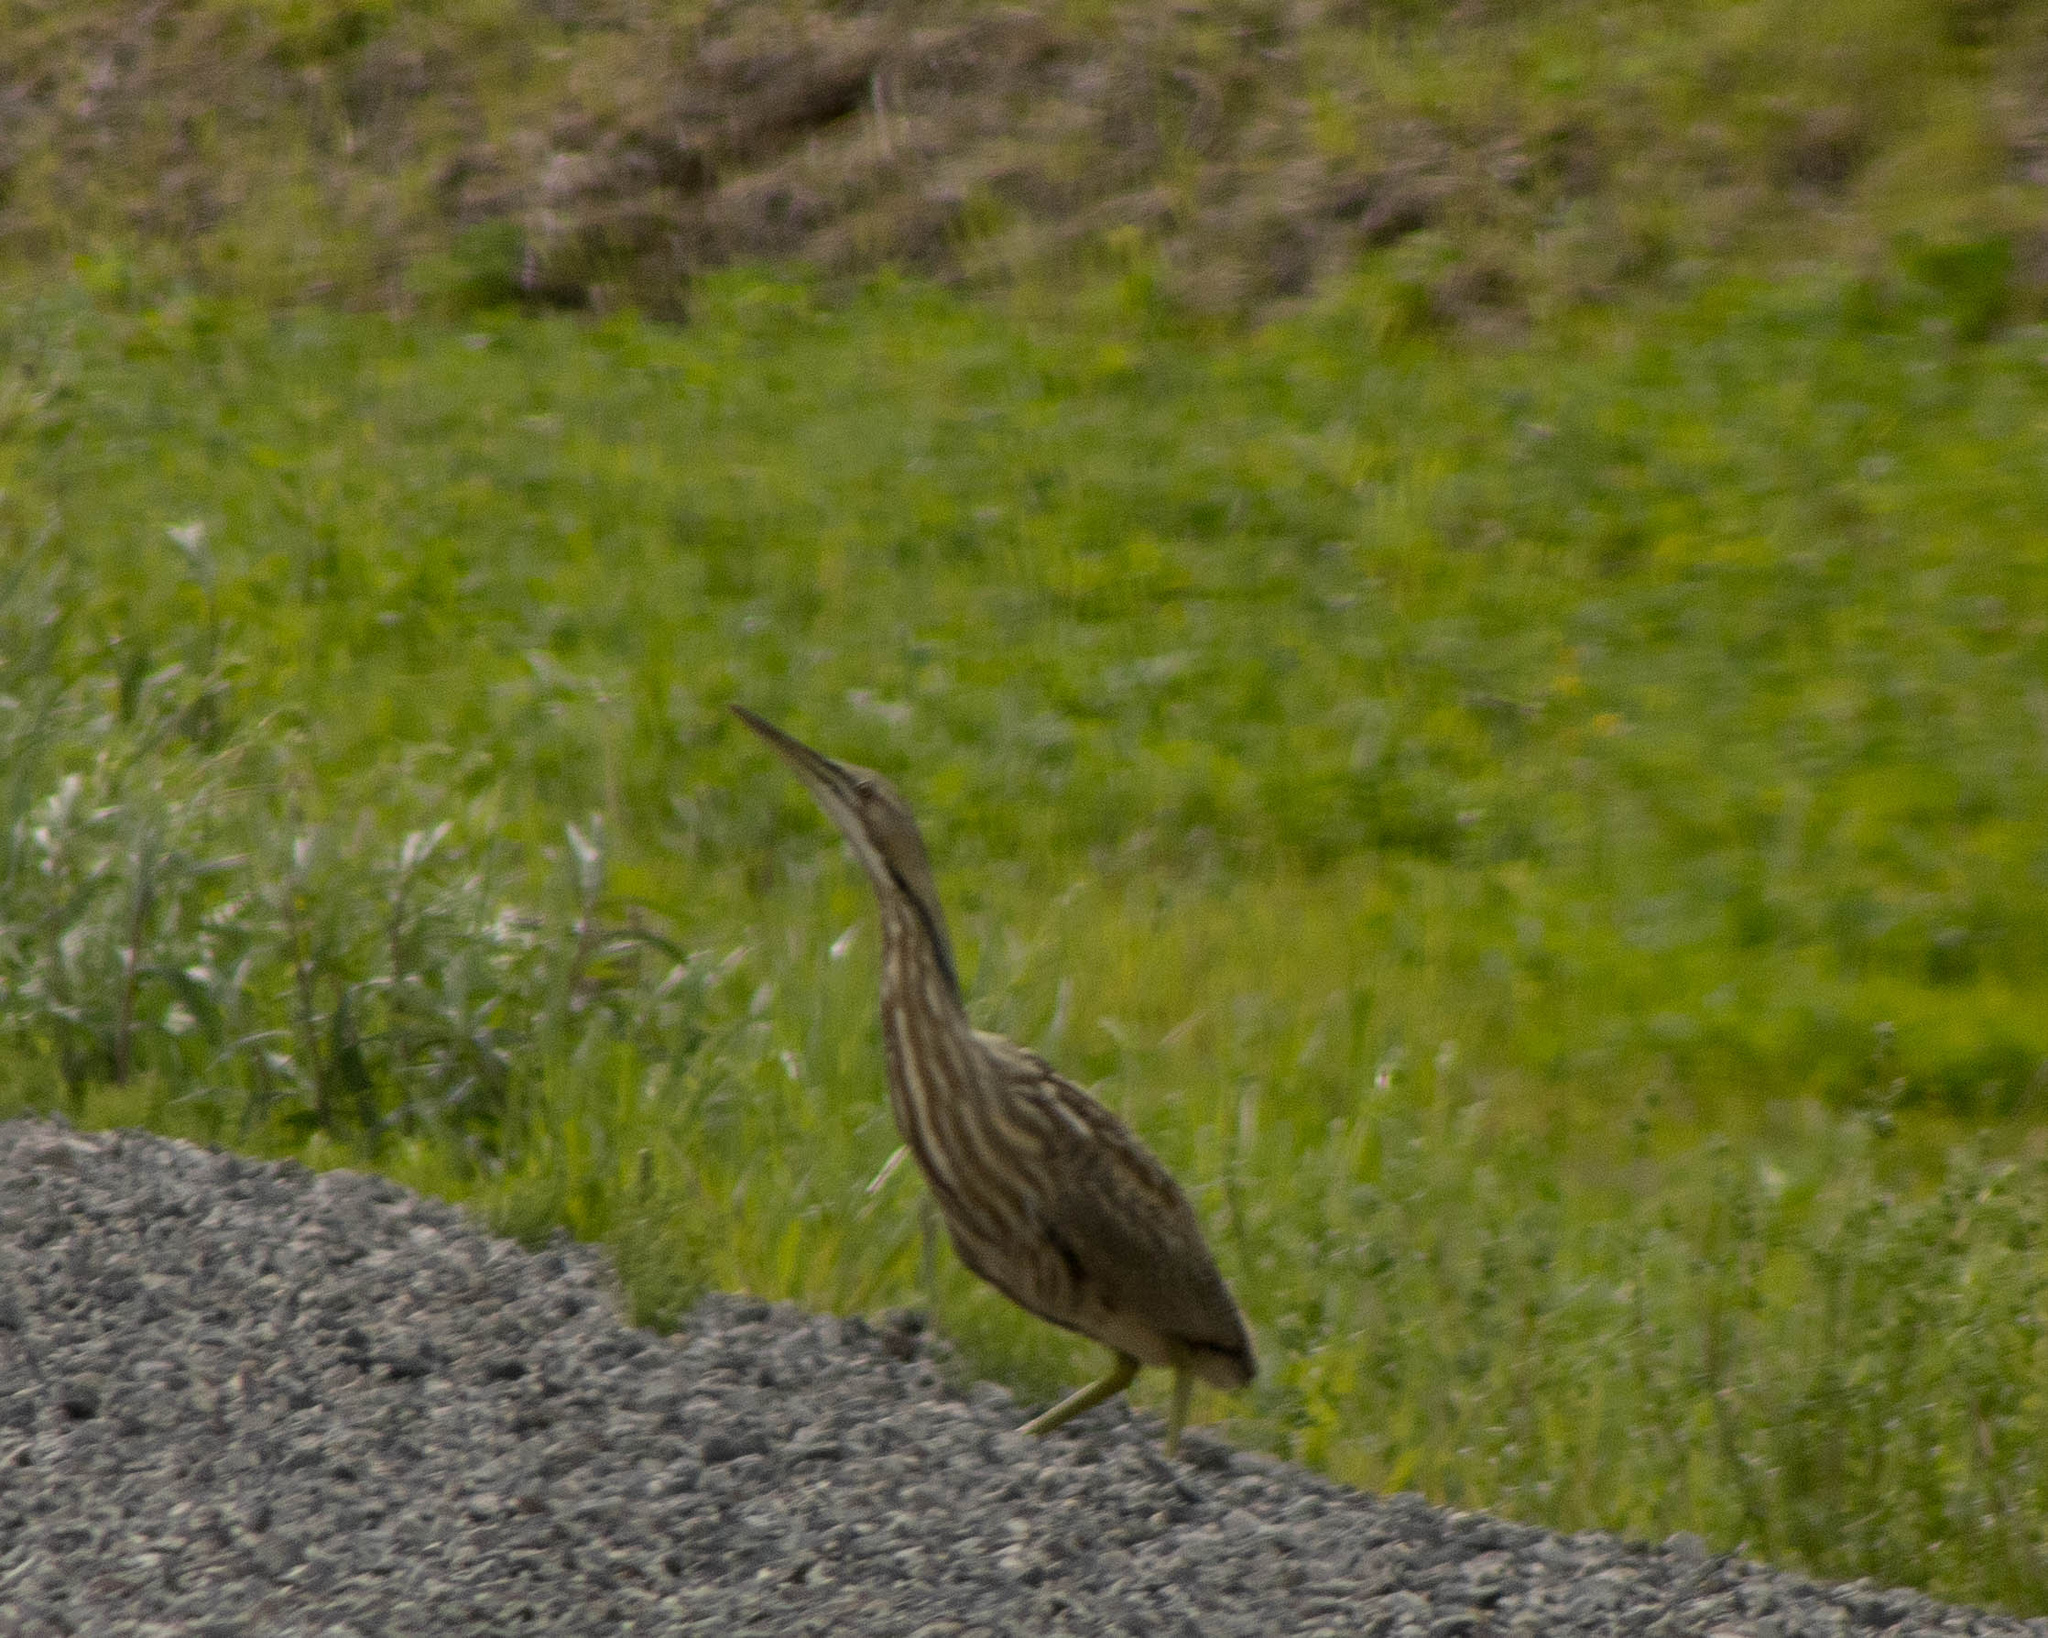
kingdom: Animalia
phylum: Chordata
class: Aves
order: Pelecaniformes
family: Ardeidae
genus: Botaurus
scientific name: Botaurus lentiginosus
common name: American bittern
